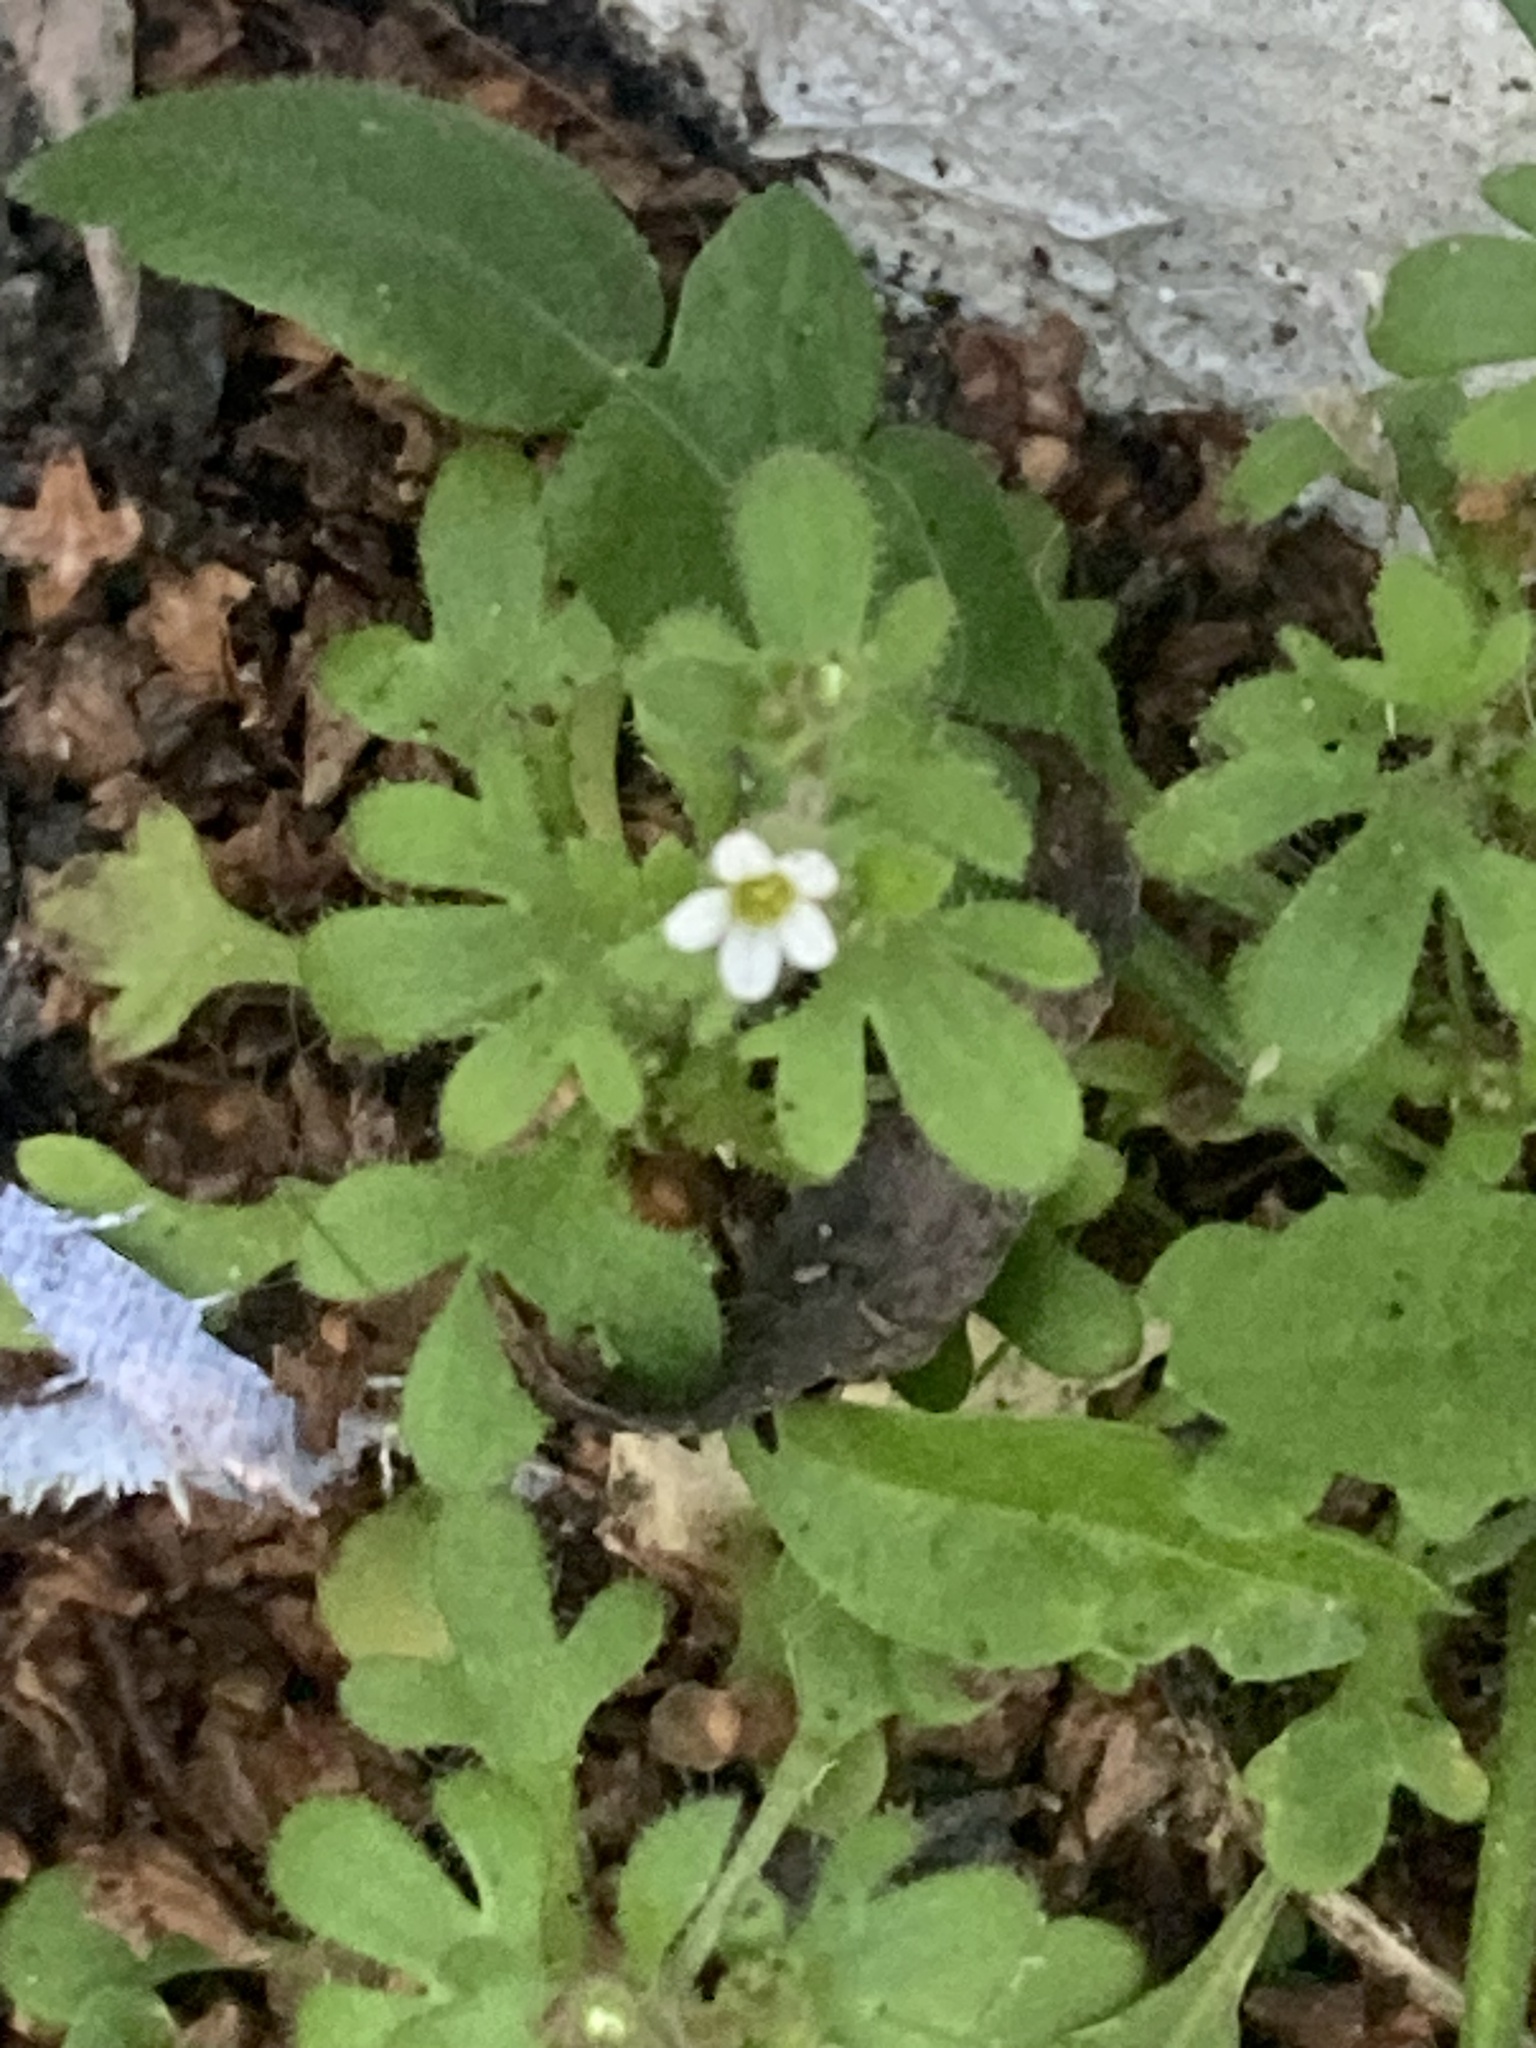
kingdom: Plantae
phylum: Tracheophyta
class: Magnoliopsida
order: Saxifragales
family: Saxifragaceae
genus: Saxifraga
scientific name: Saxifraga tridactylites
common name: Rue-leaved saxifrage
